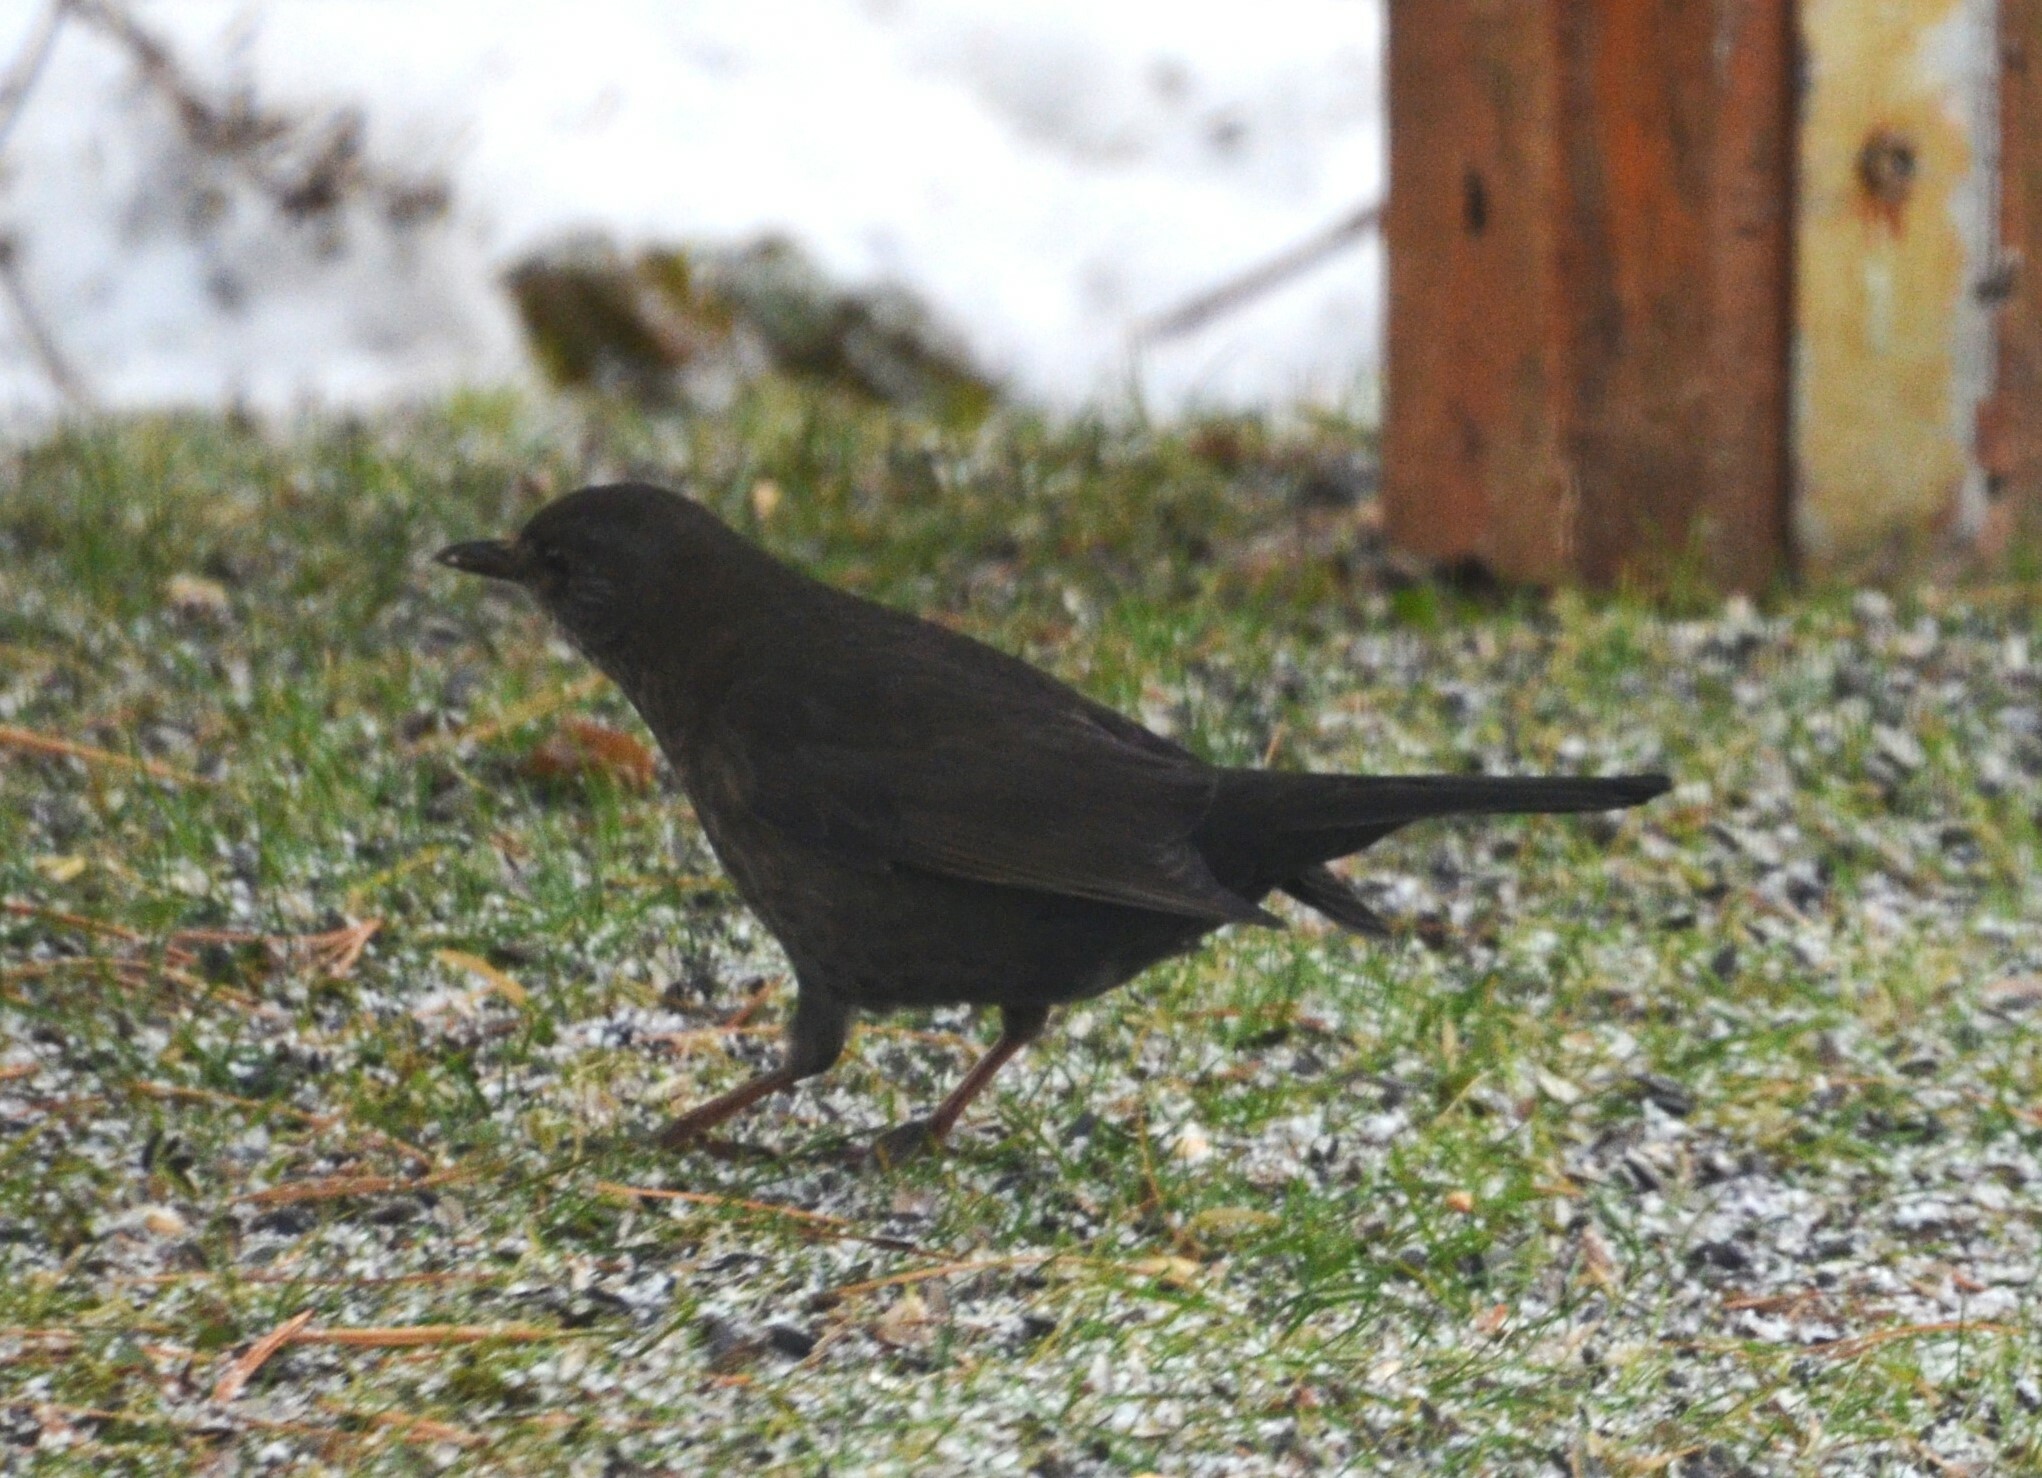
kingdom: Animalia
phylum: Chordata
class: Aves
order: Passeriformes
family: Turdidae
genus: Turdus
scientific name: Turdus merula
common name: Common blackbird
